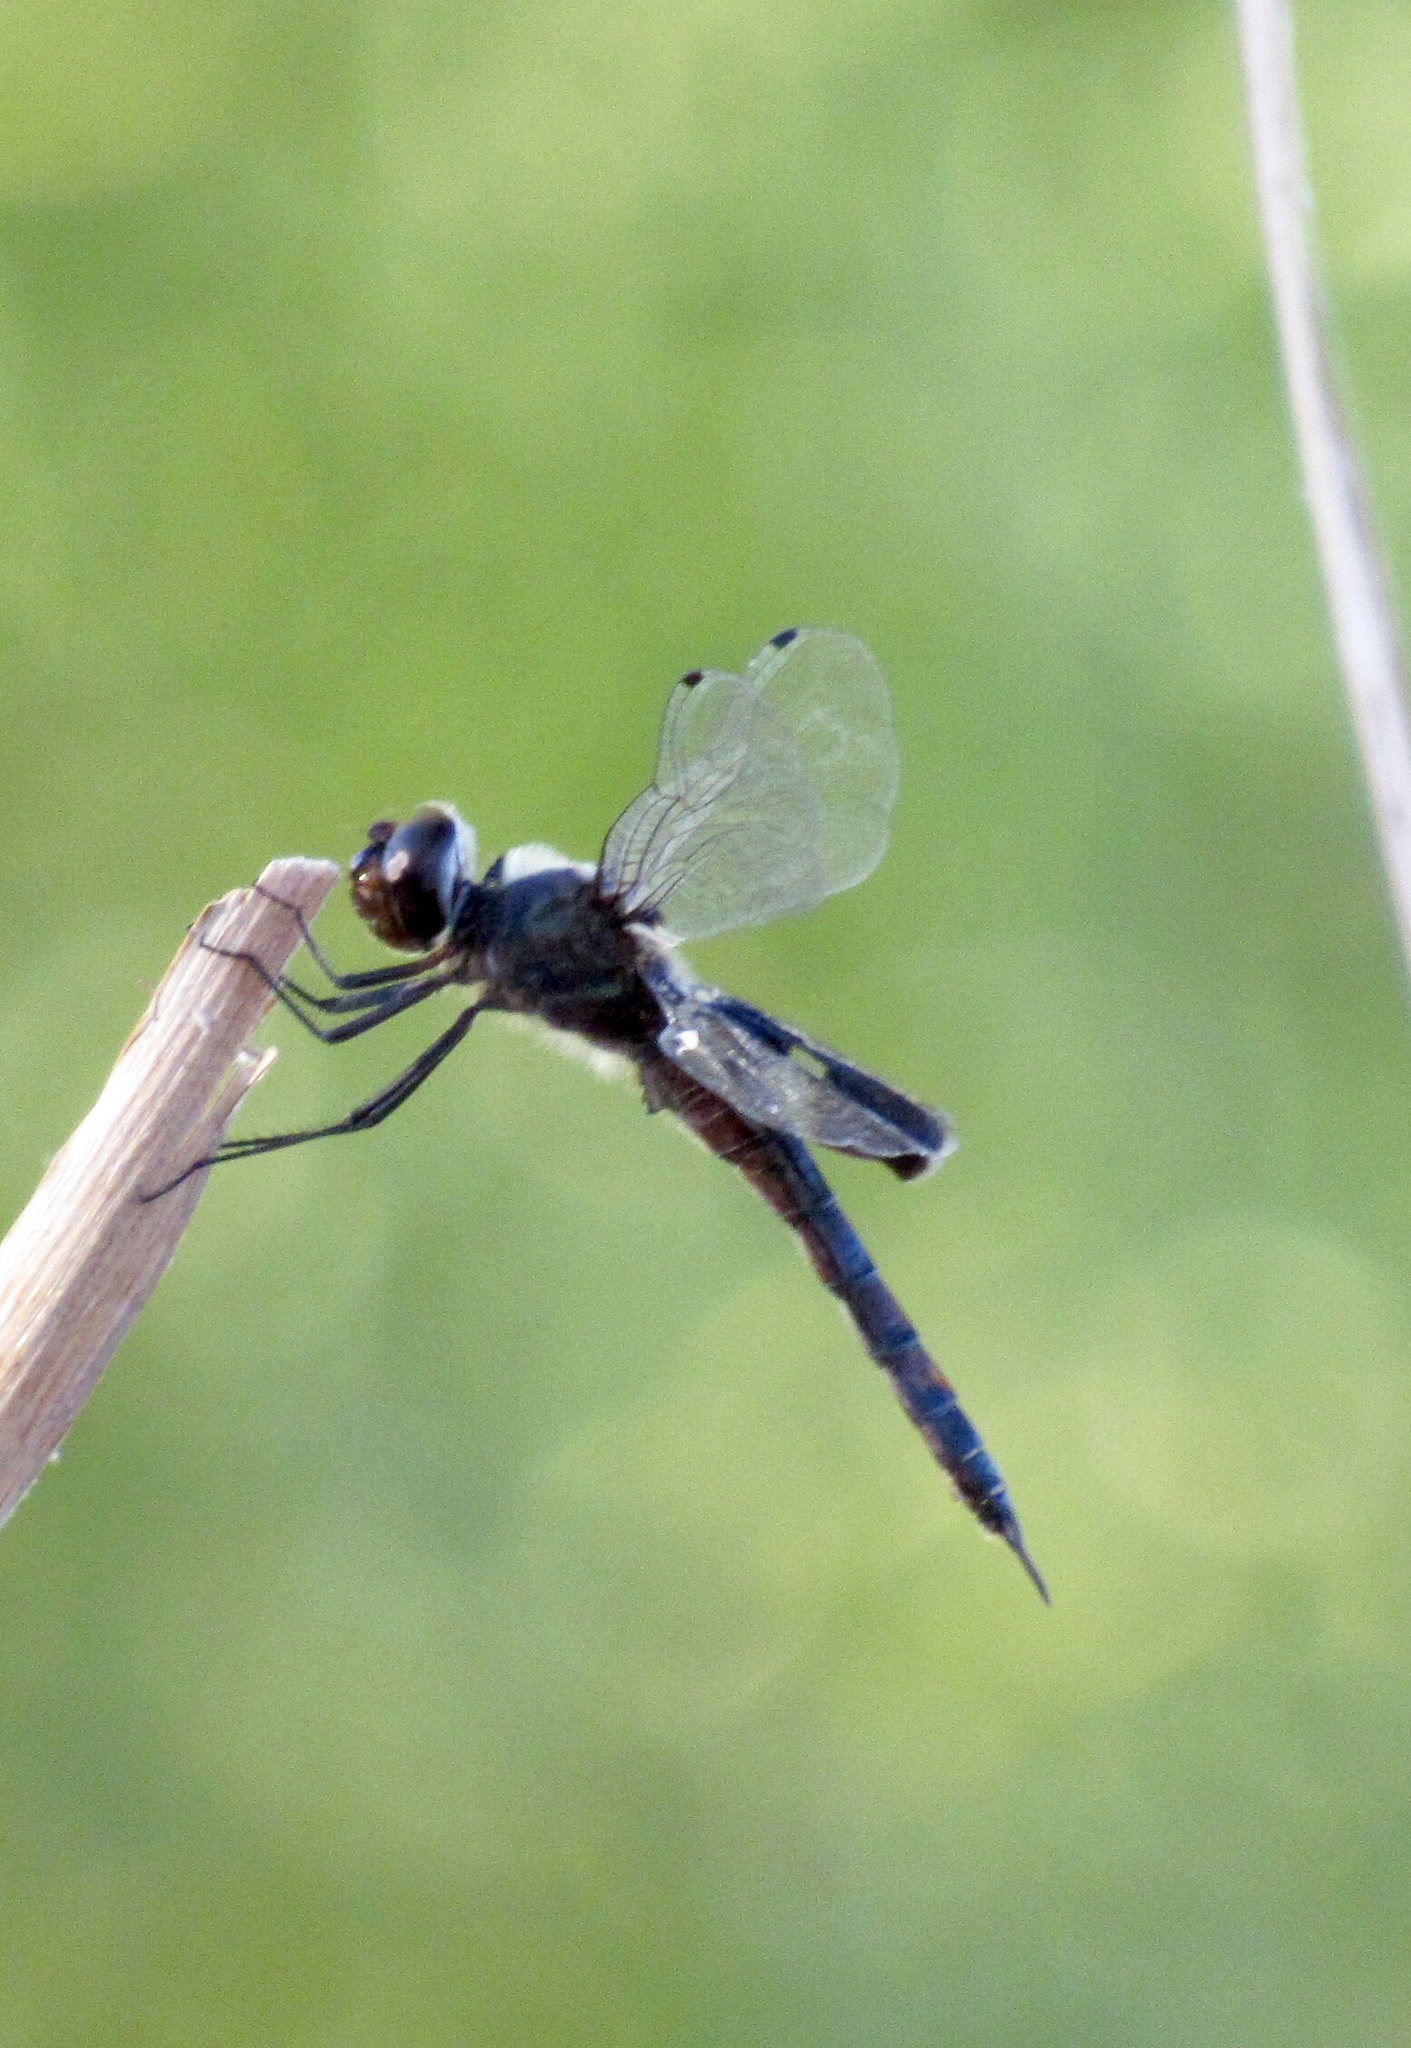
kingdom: Animalia
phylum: Arthropoda
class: Insecta
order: Odonata
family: Libellulidae
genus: Tramea
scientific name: Tramea lacerata
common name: Black saddlebags
